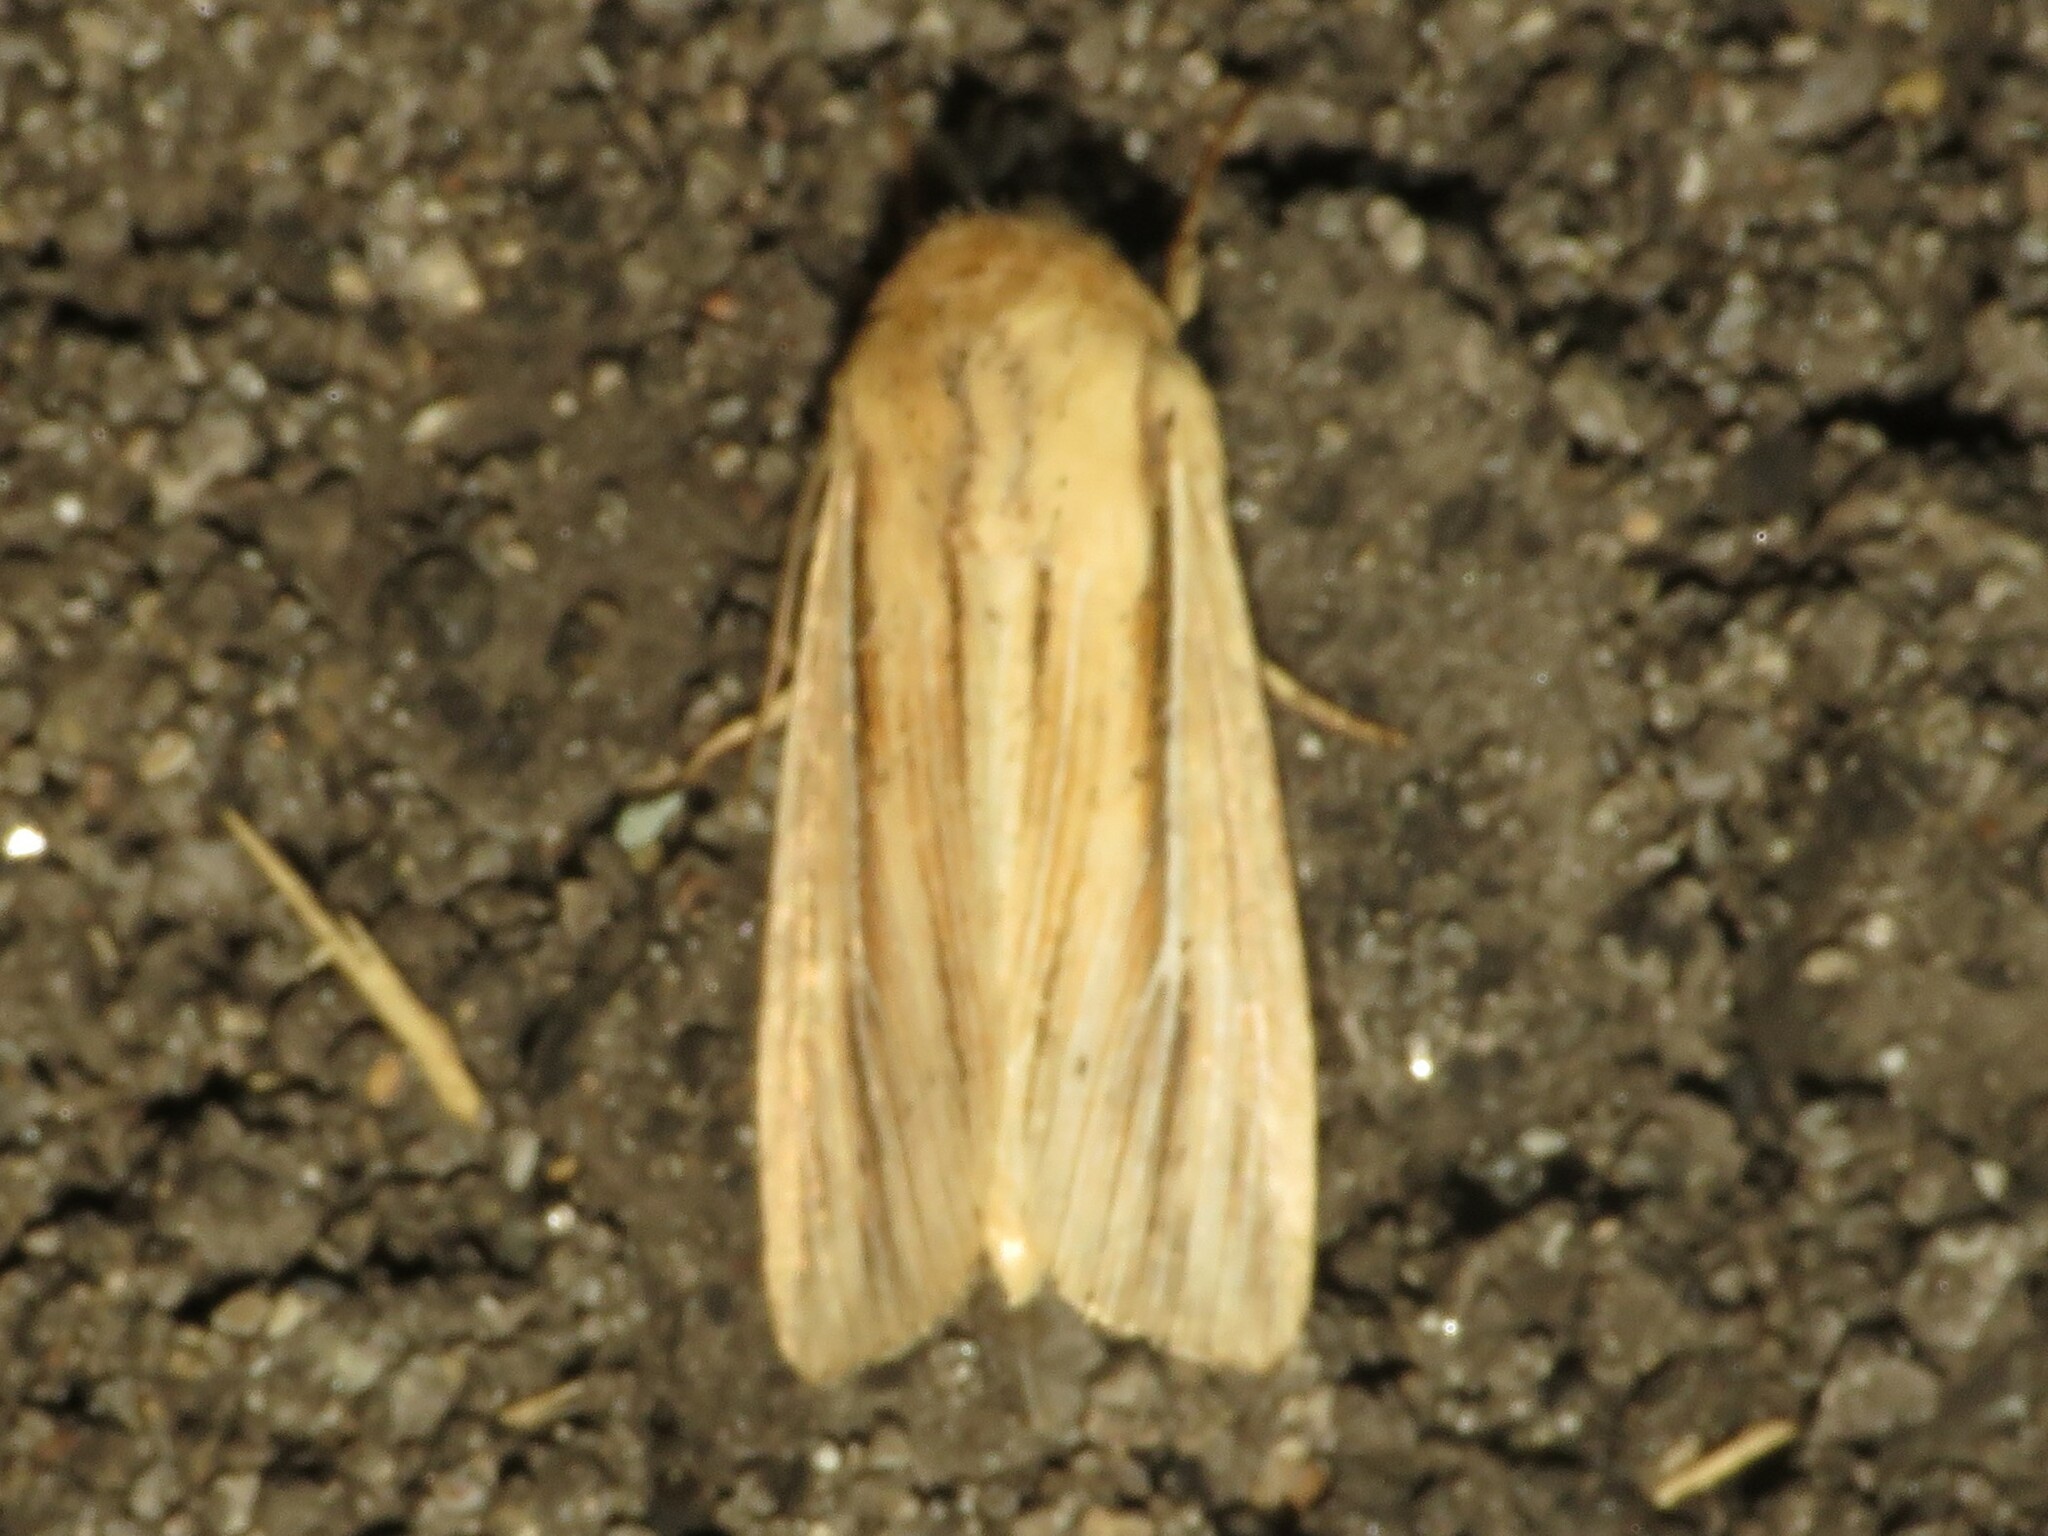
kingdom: Animalia
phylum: Arthropoda
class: Insecta
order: Lepidoptera
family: Noctuidae
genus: Leucania
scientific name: Leucania commoides
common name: Two-lined wainscot
